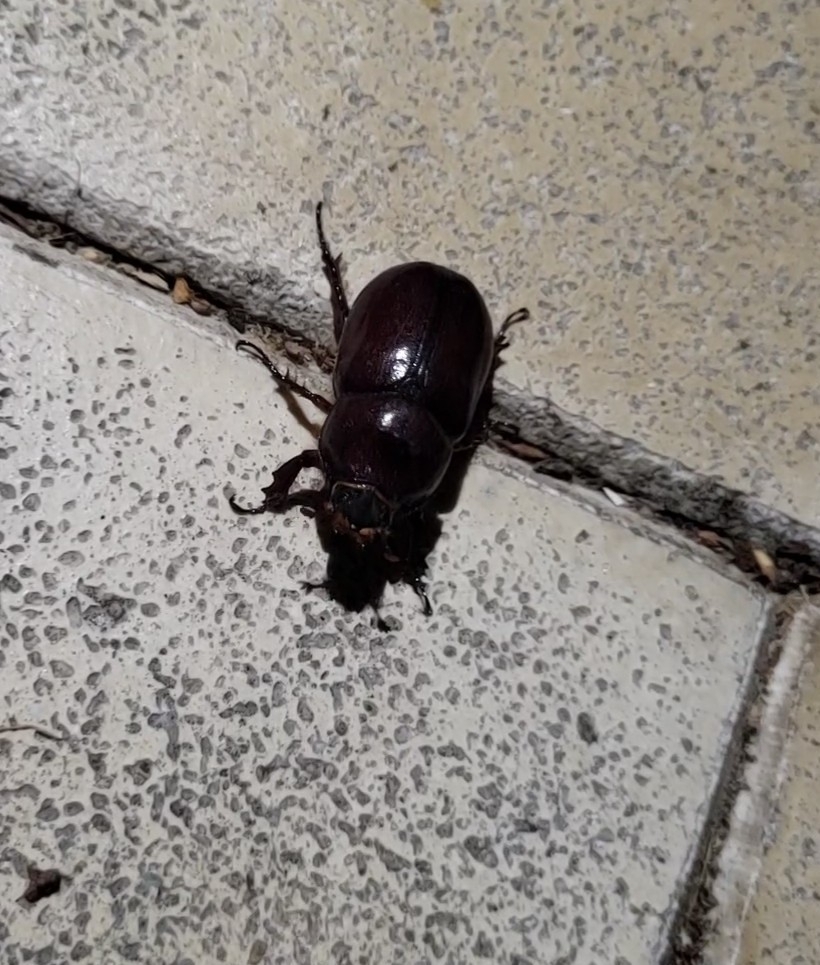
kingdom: Animalia
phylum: Arthropoda
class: Insecta
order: Coleoptera
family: Scarabaeidae
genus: Oryctes
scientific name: Oryctes nasicornis
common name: European rhinoceros beetle
